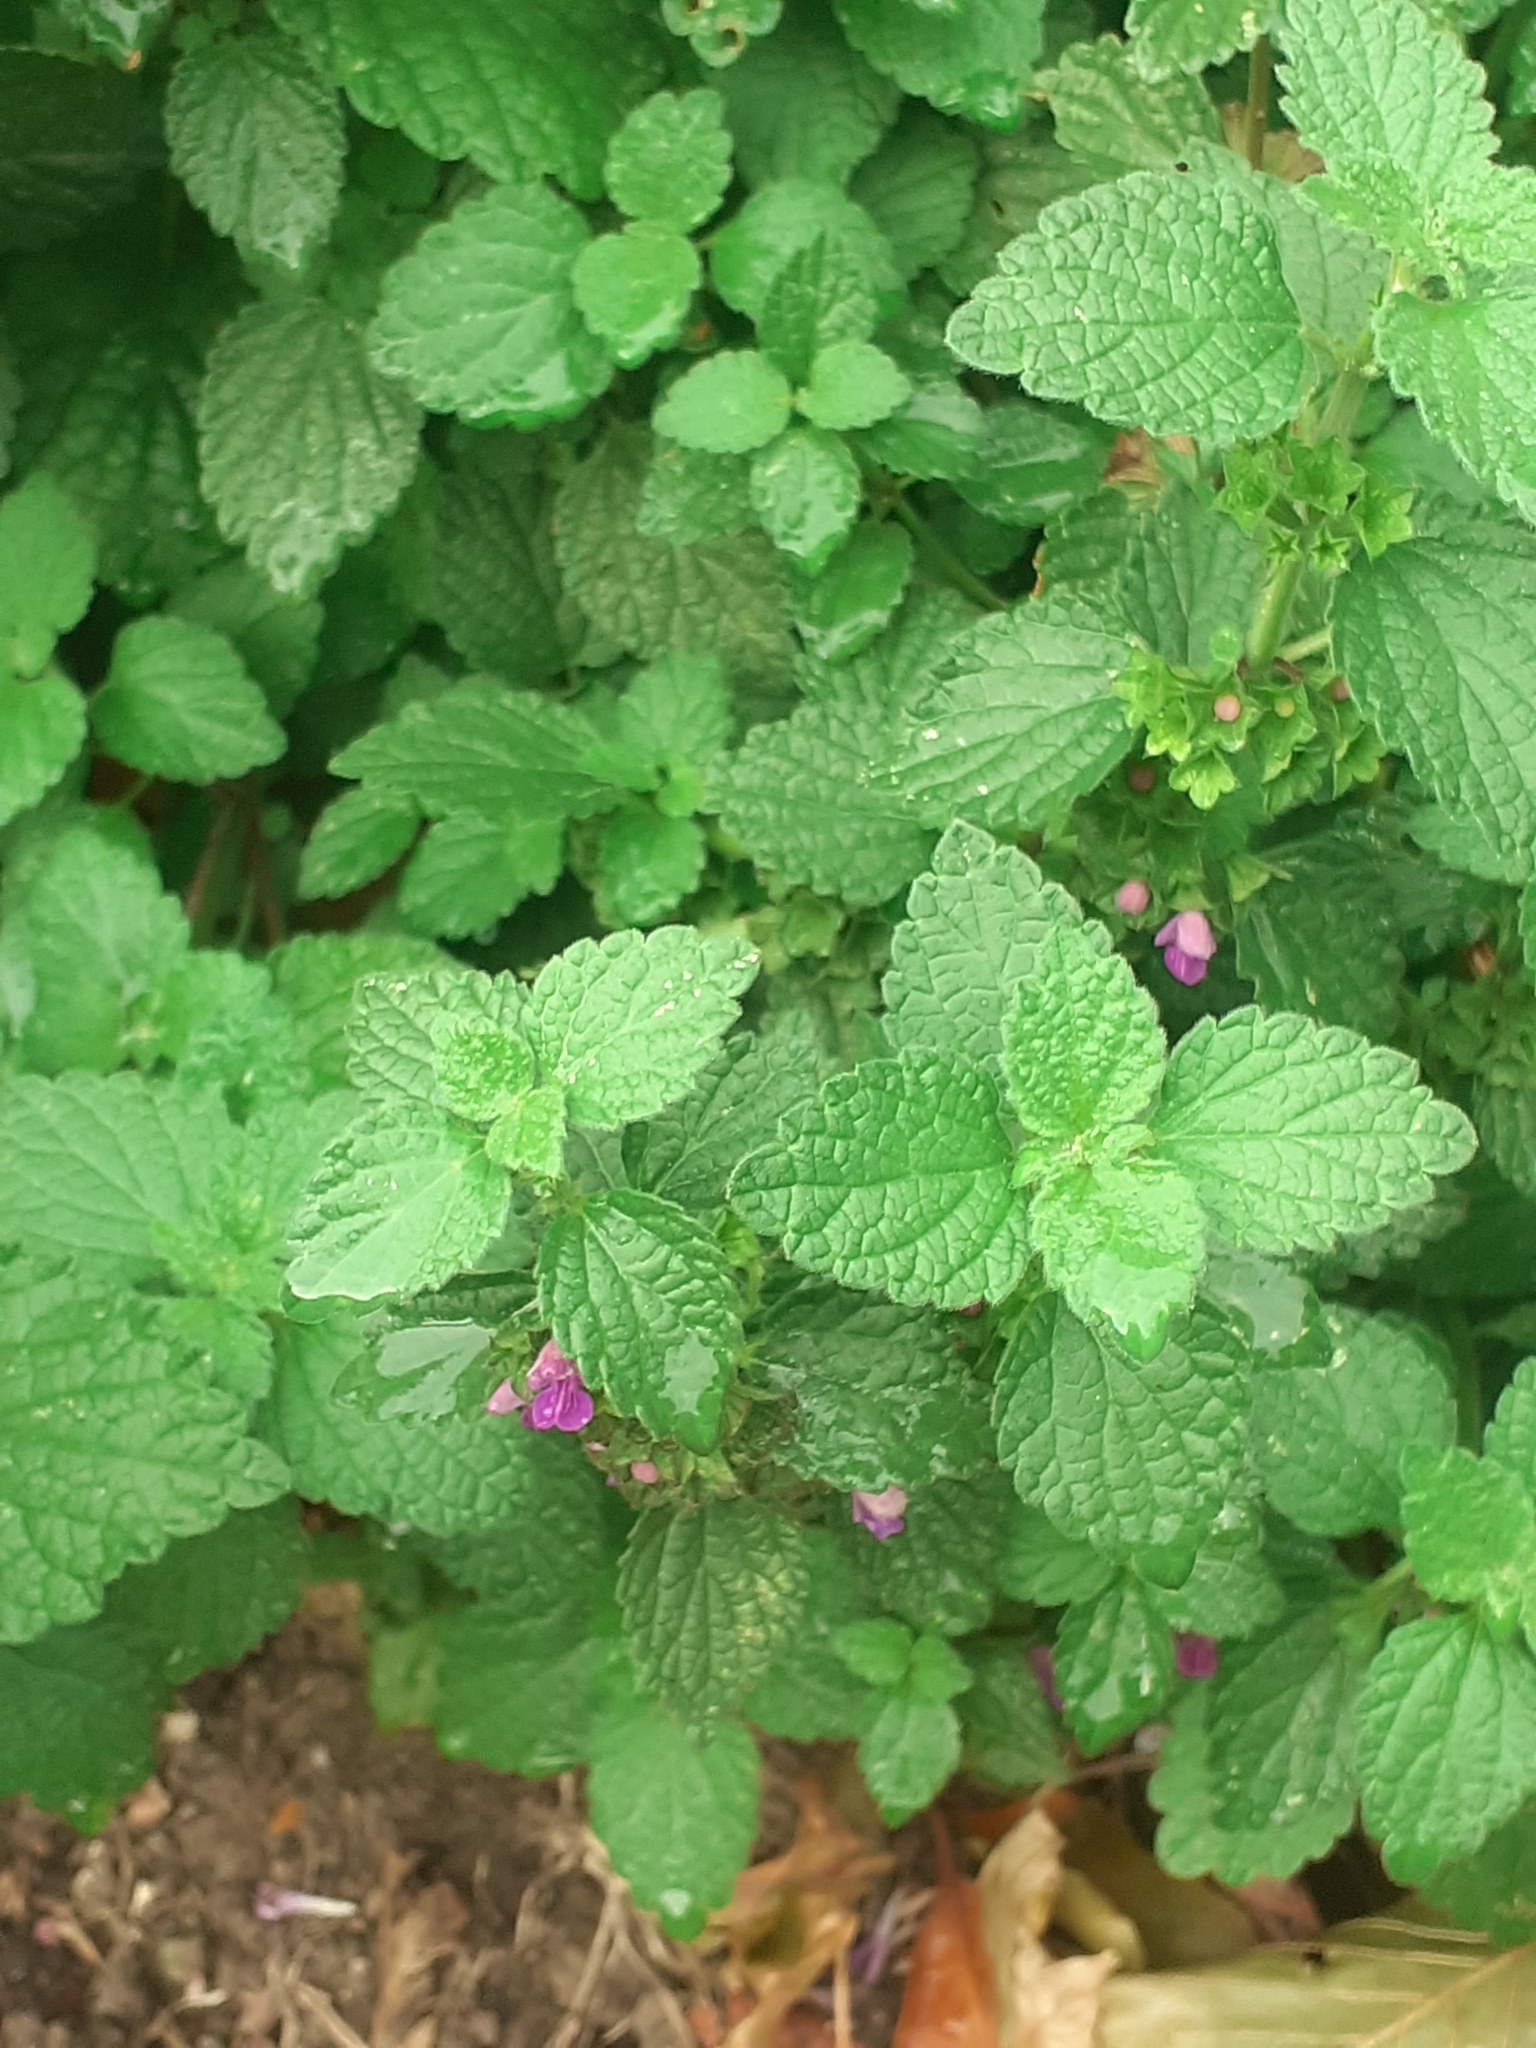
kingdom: Plantae
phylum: Tracheophyta
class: Magnoliopsida
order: Lamiales
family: Lamiaceae
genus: Ballota
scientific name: Ballota nigra
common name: Black horehound
